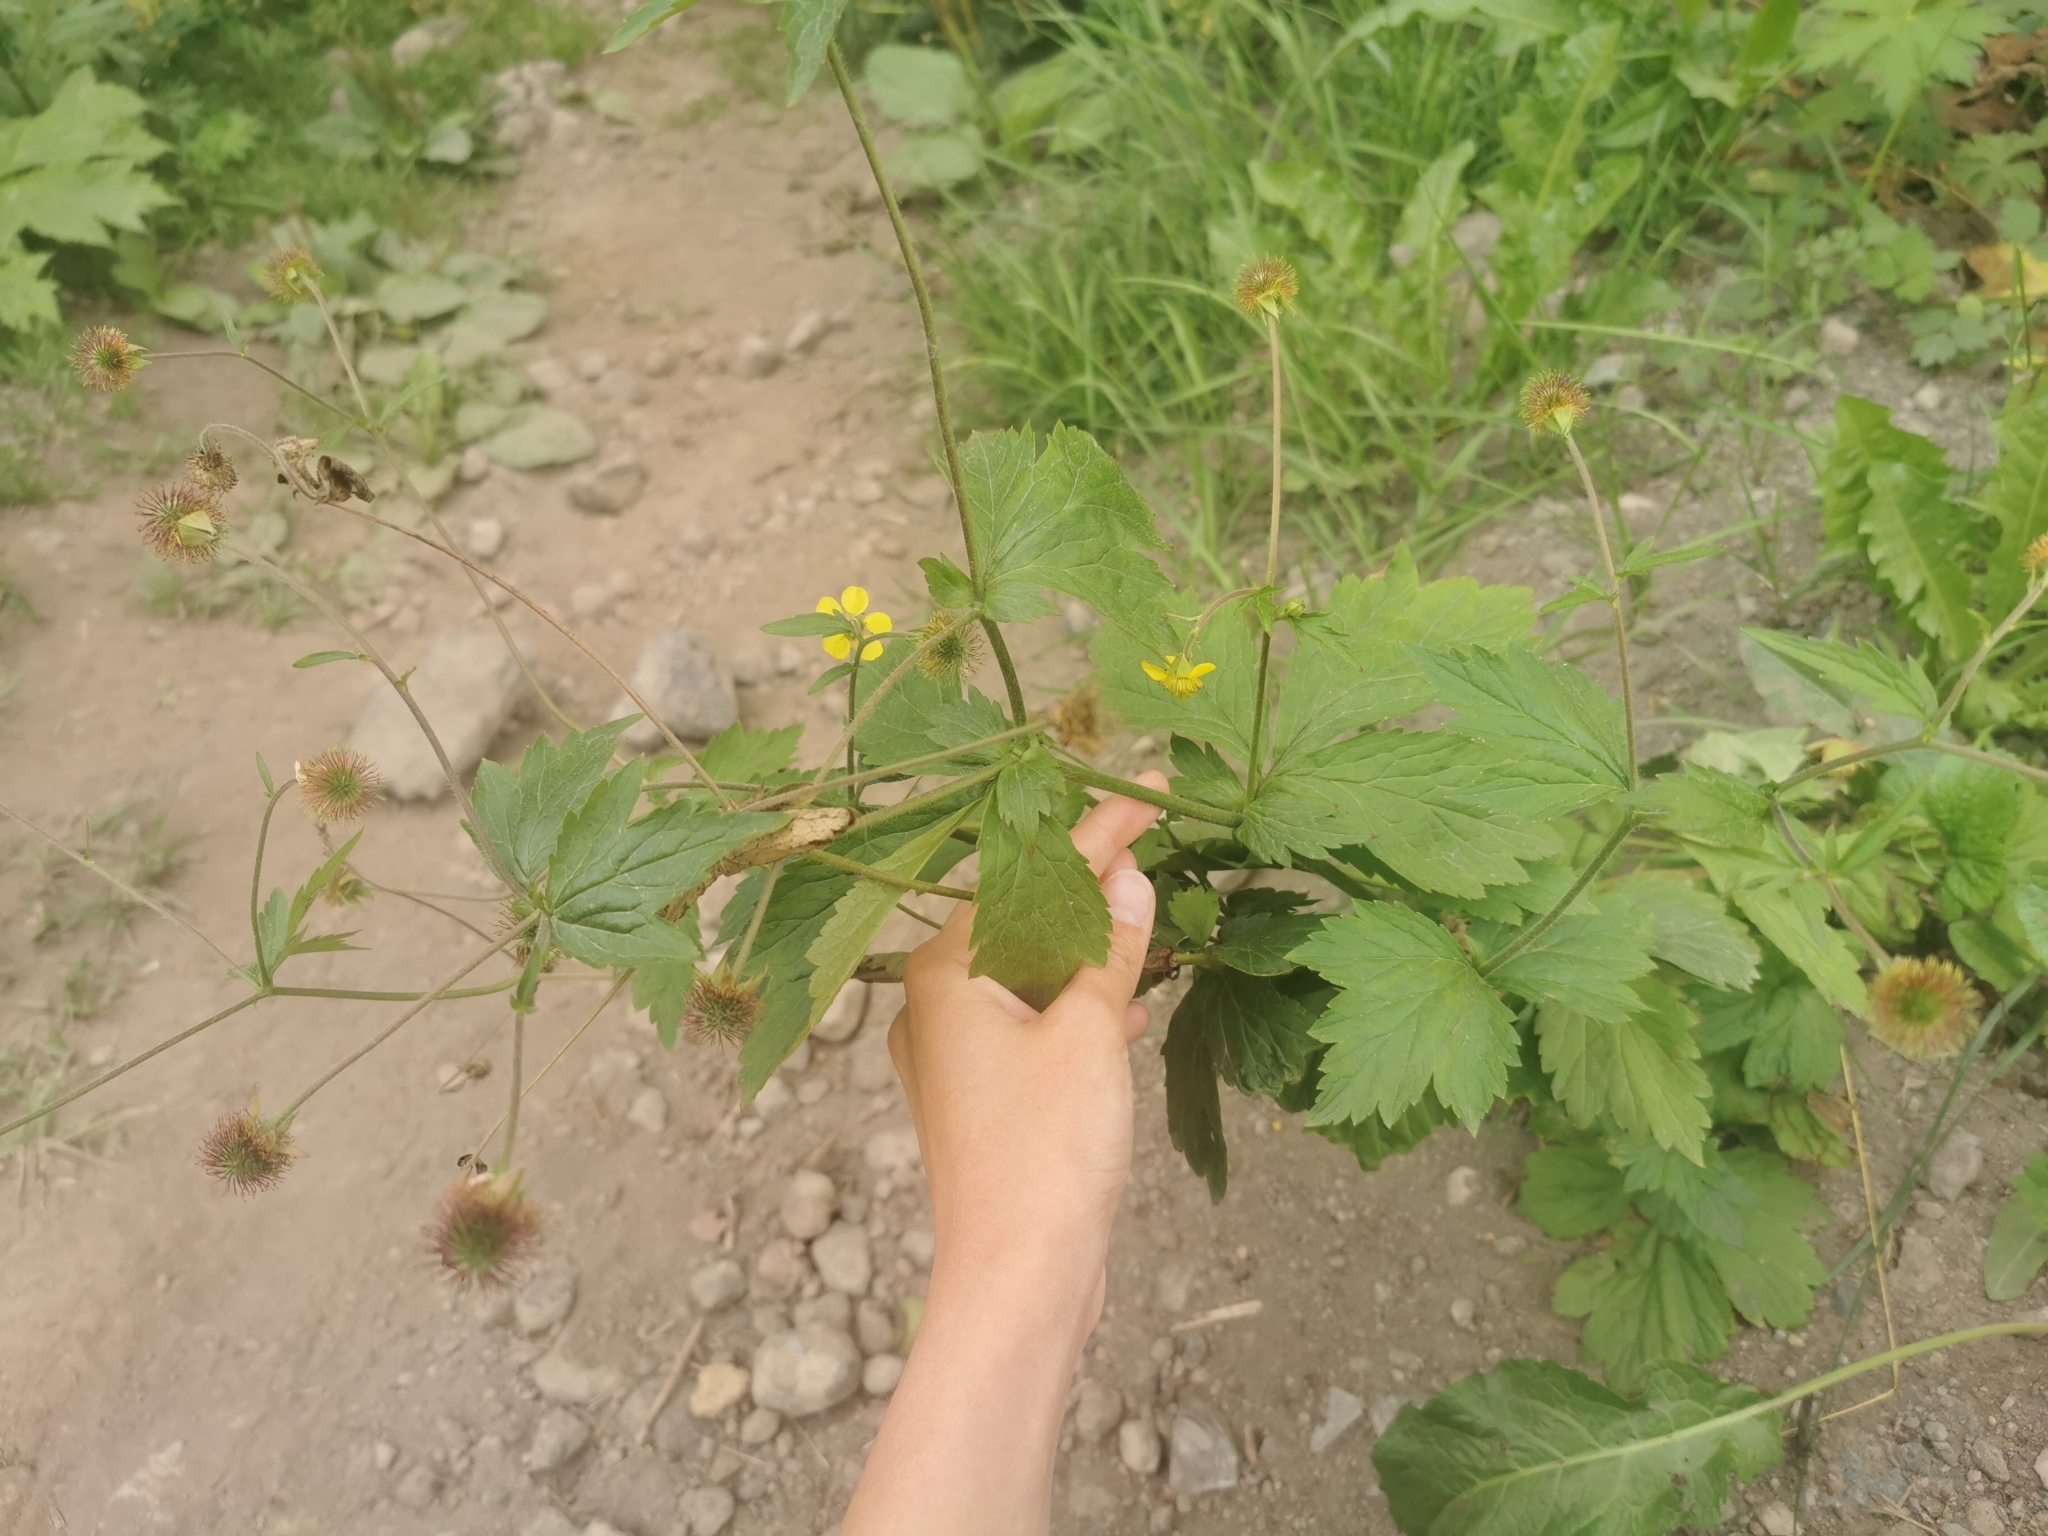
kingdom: Plantae
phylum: Tracheophyta
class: Magnoliopsida
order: Rosales
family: Rosaceae
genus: Geum
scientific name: Geum aleppicum
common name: Yellow avens
